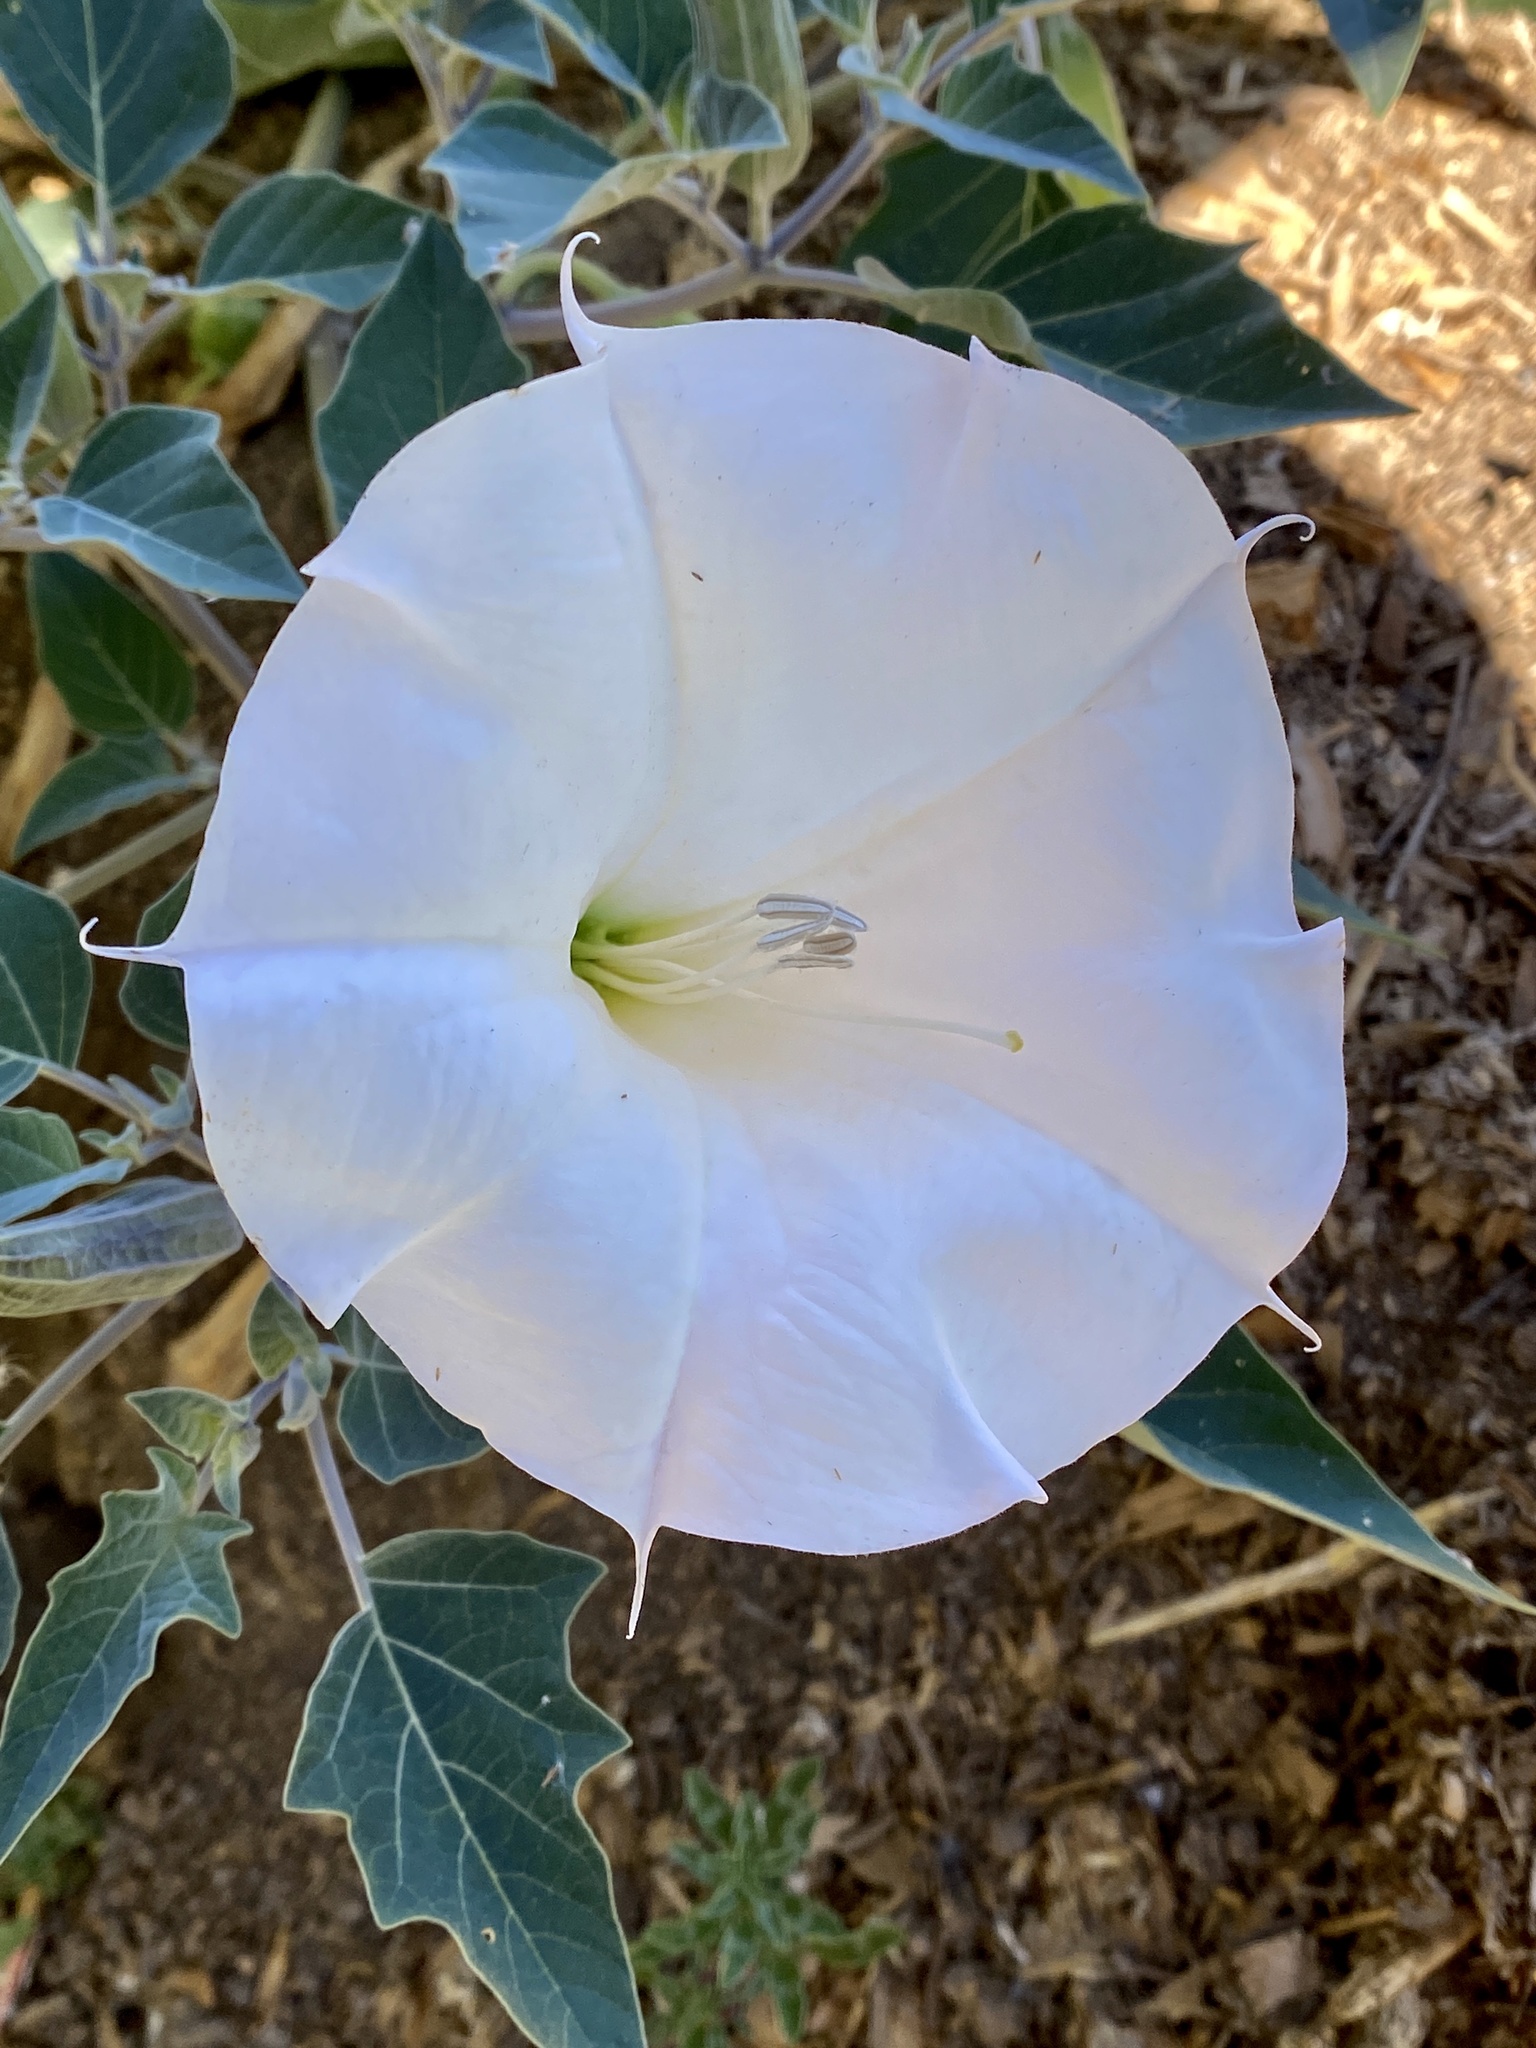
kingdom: Plantae
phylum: Tracheophyta
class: Magnoliopsida
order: Solanales
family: Solanaceae
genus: Datura
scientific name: Datura wrightii
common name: Sacred thorn-apple
